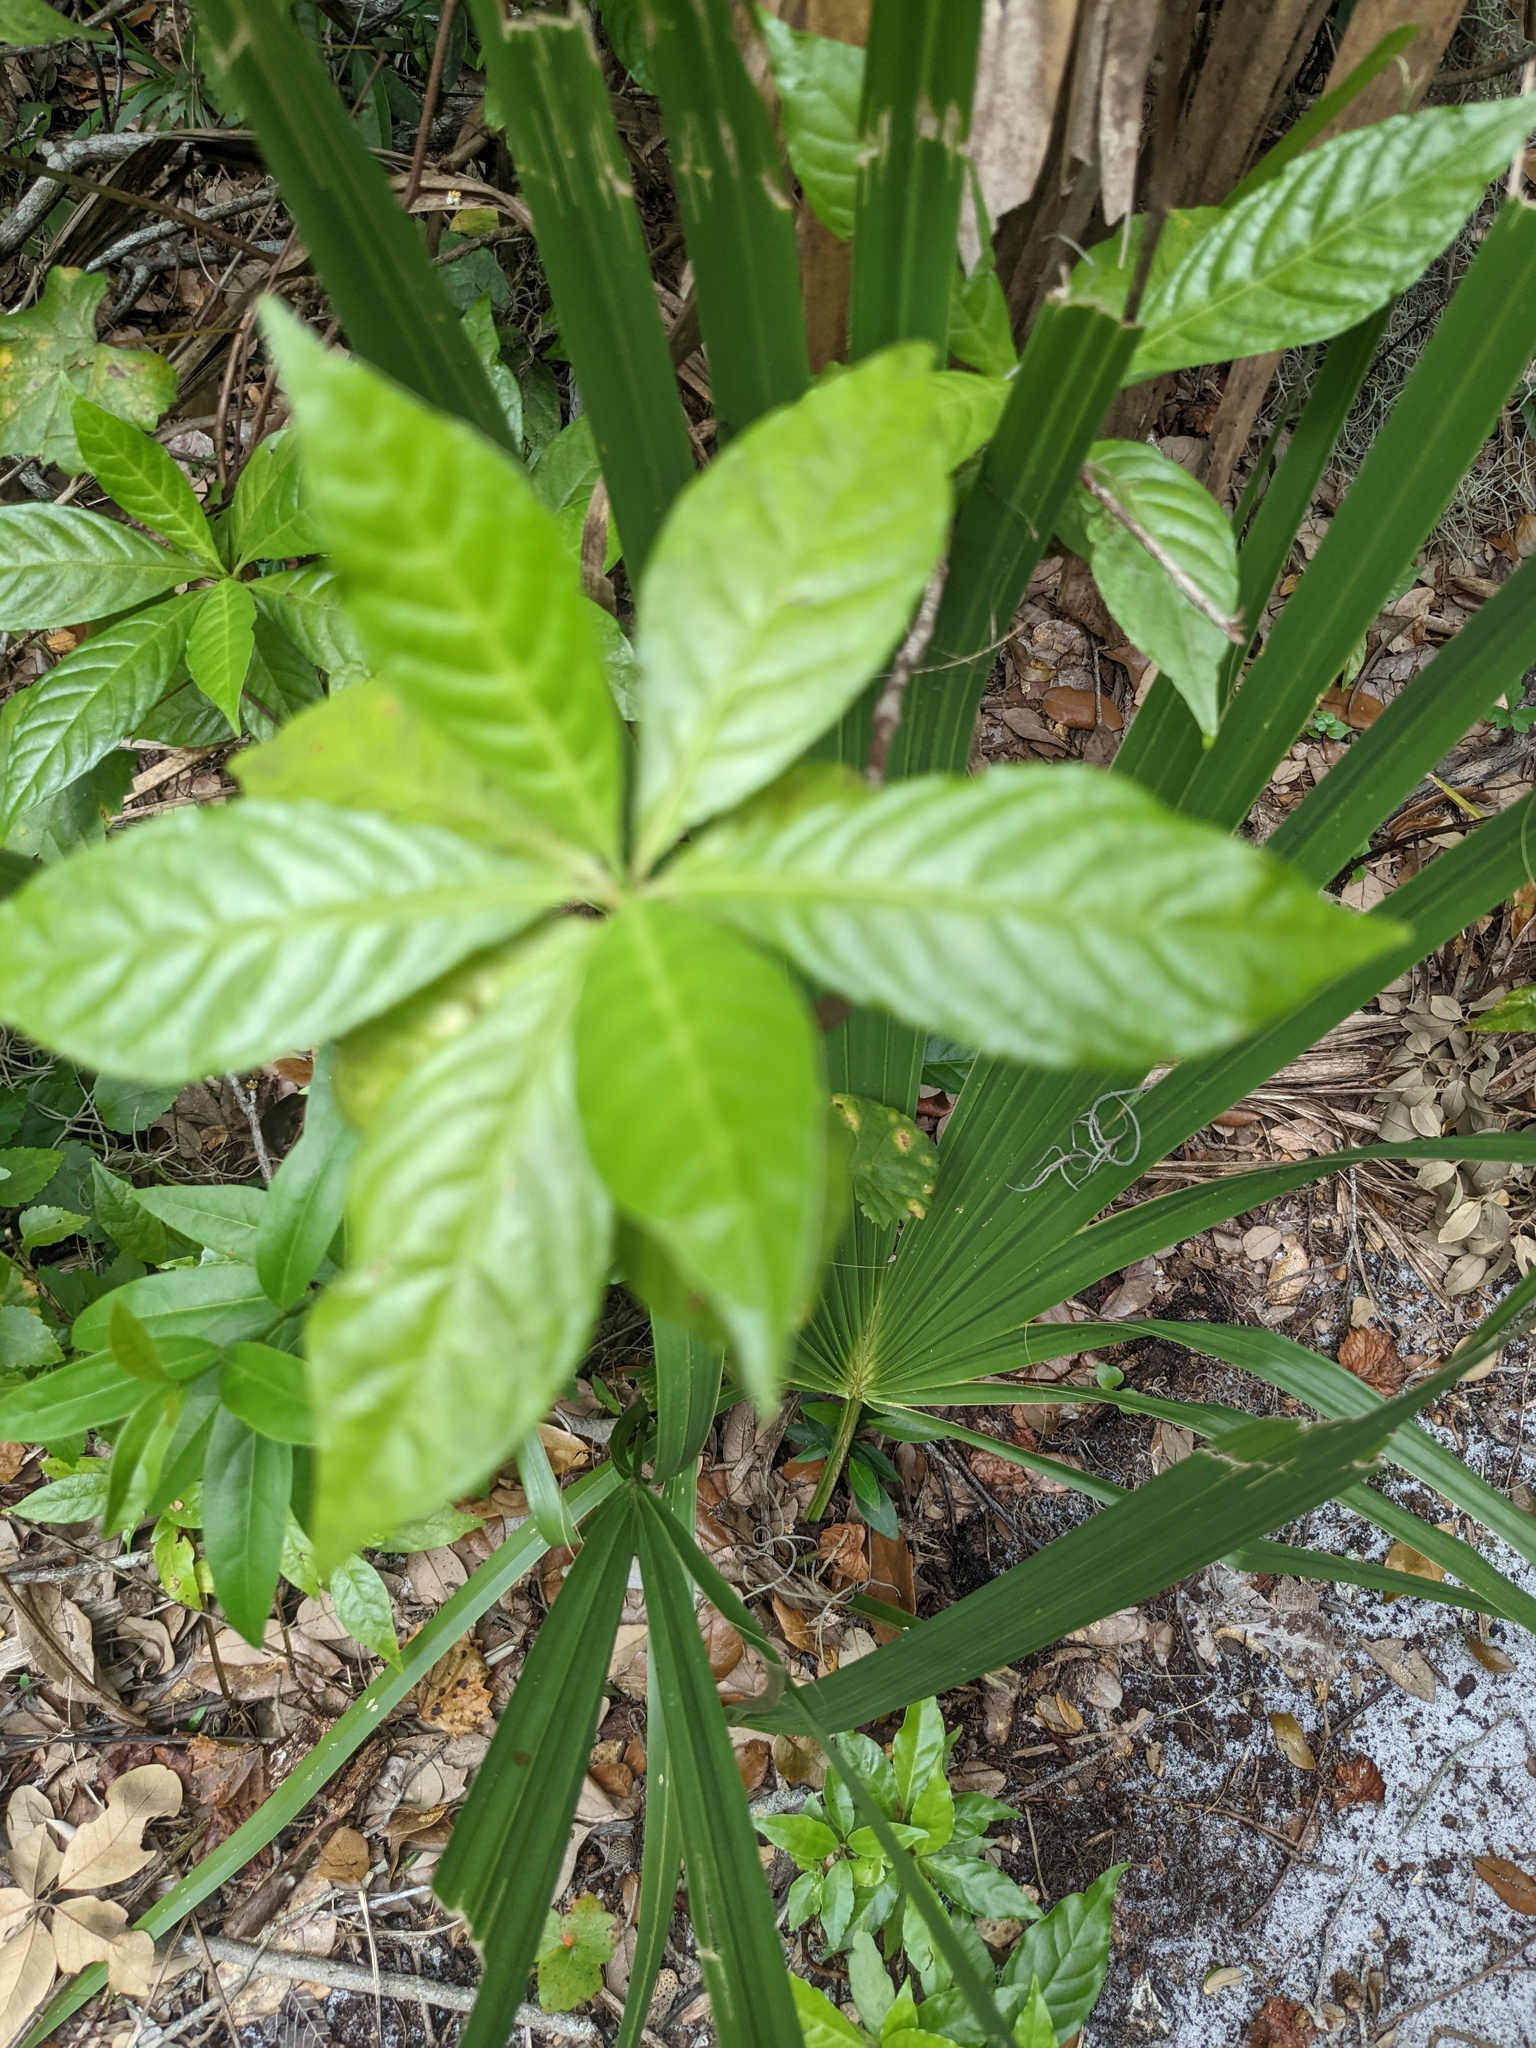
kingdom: Plantae
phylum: Tracheophyta
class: Magnoliopsida
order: Gentianales
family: Rubiaceae
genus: Psychotria
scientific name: Psychotria nervosa
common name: Bastard cankerberry
